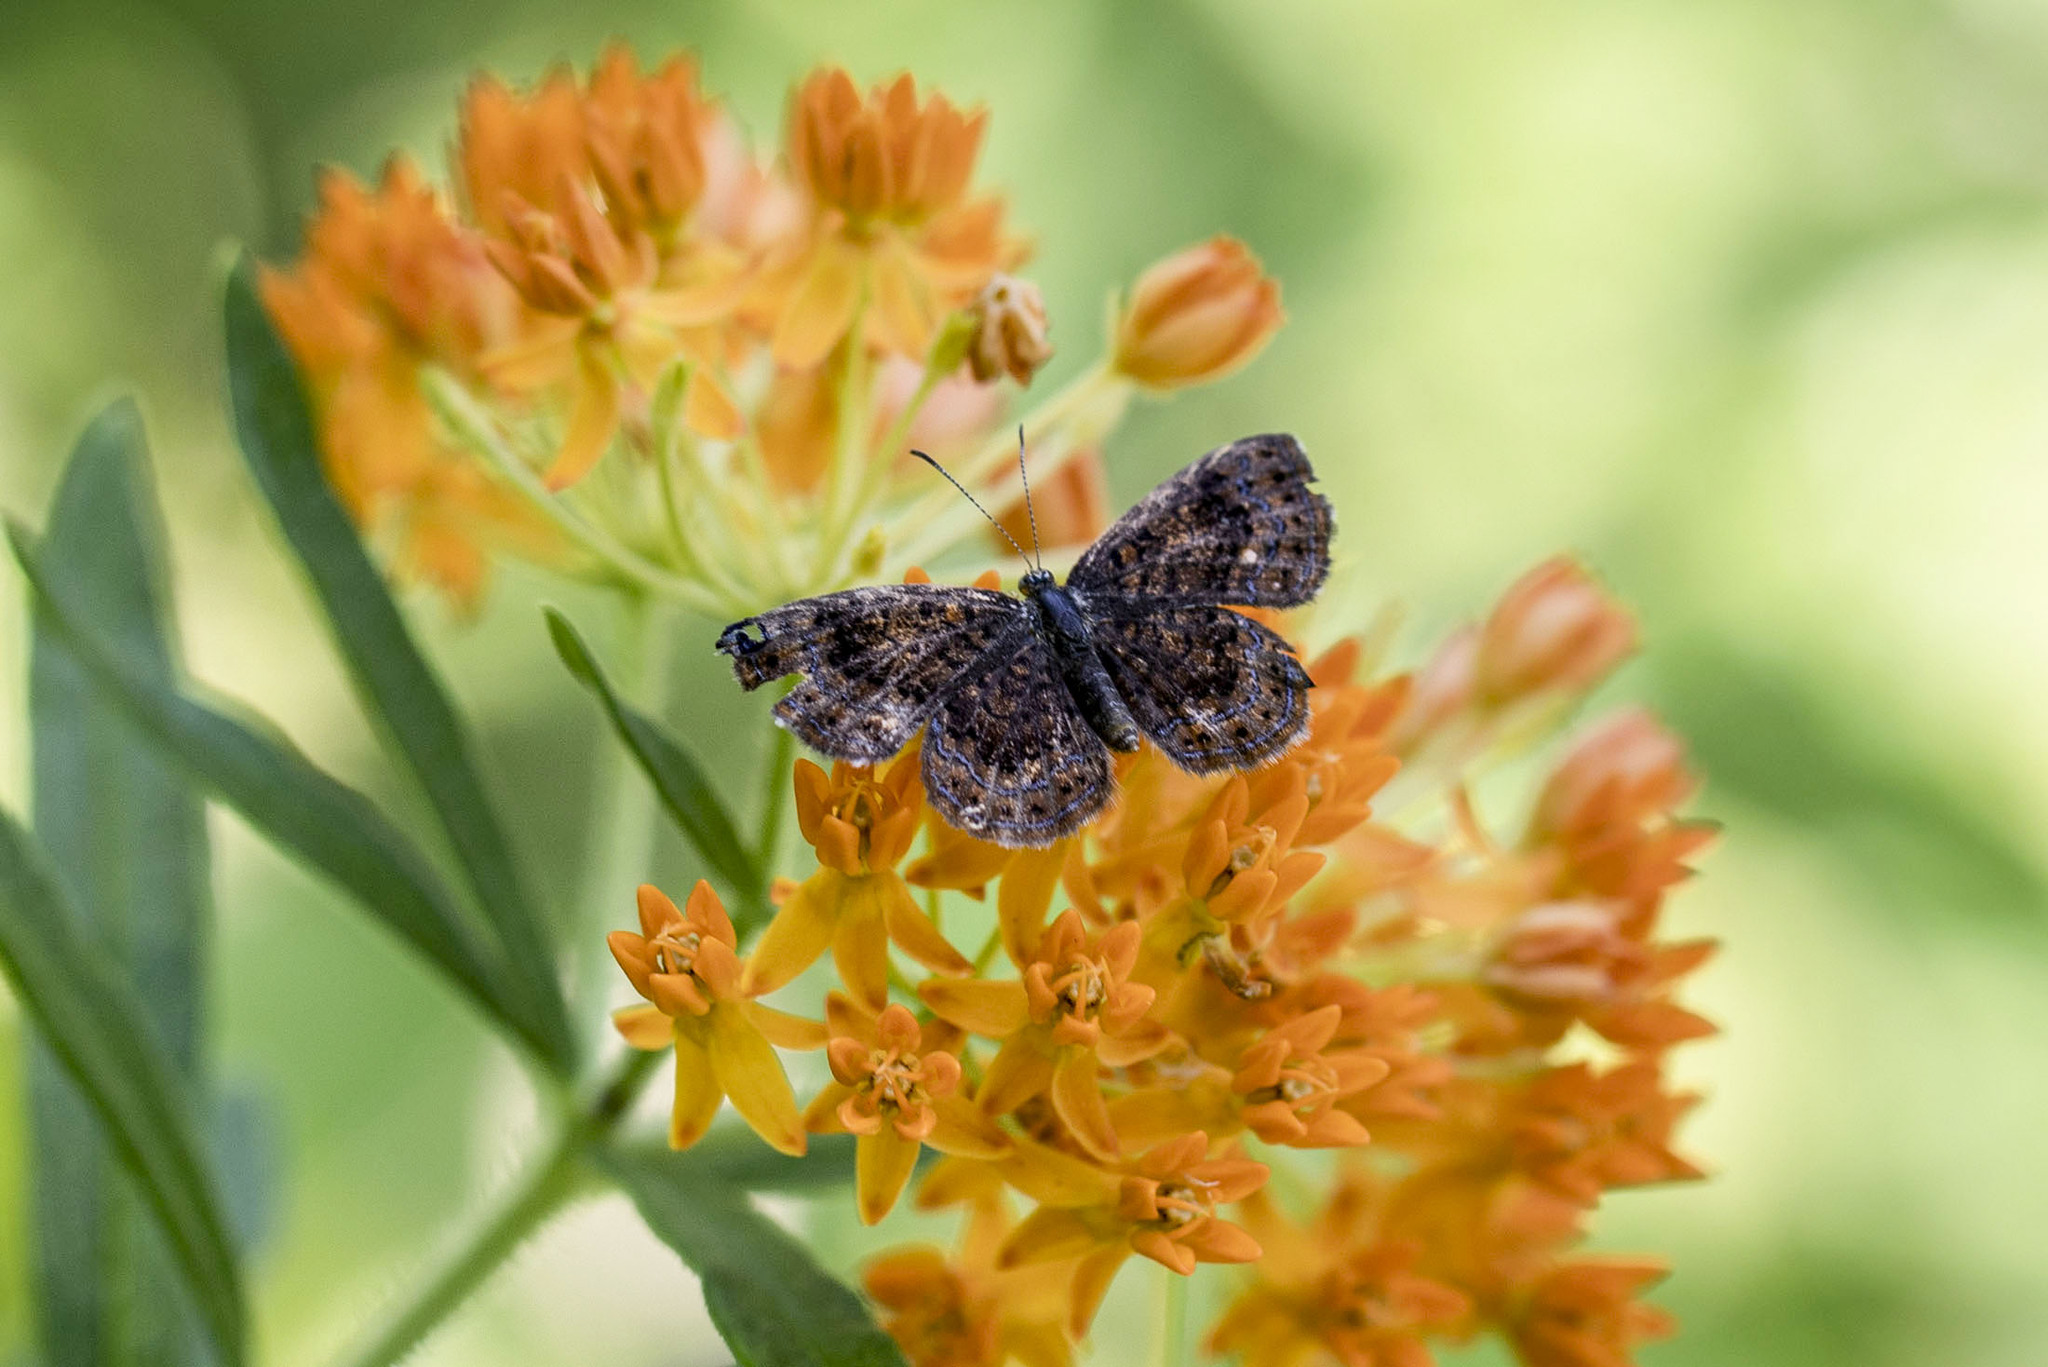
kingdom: Animalia
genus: Calephelis
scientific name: Calephelis borealis
